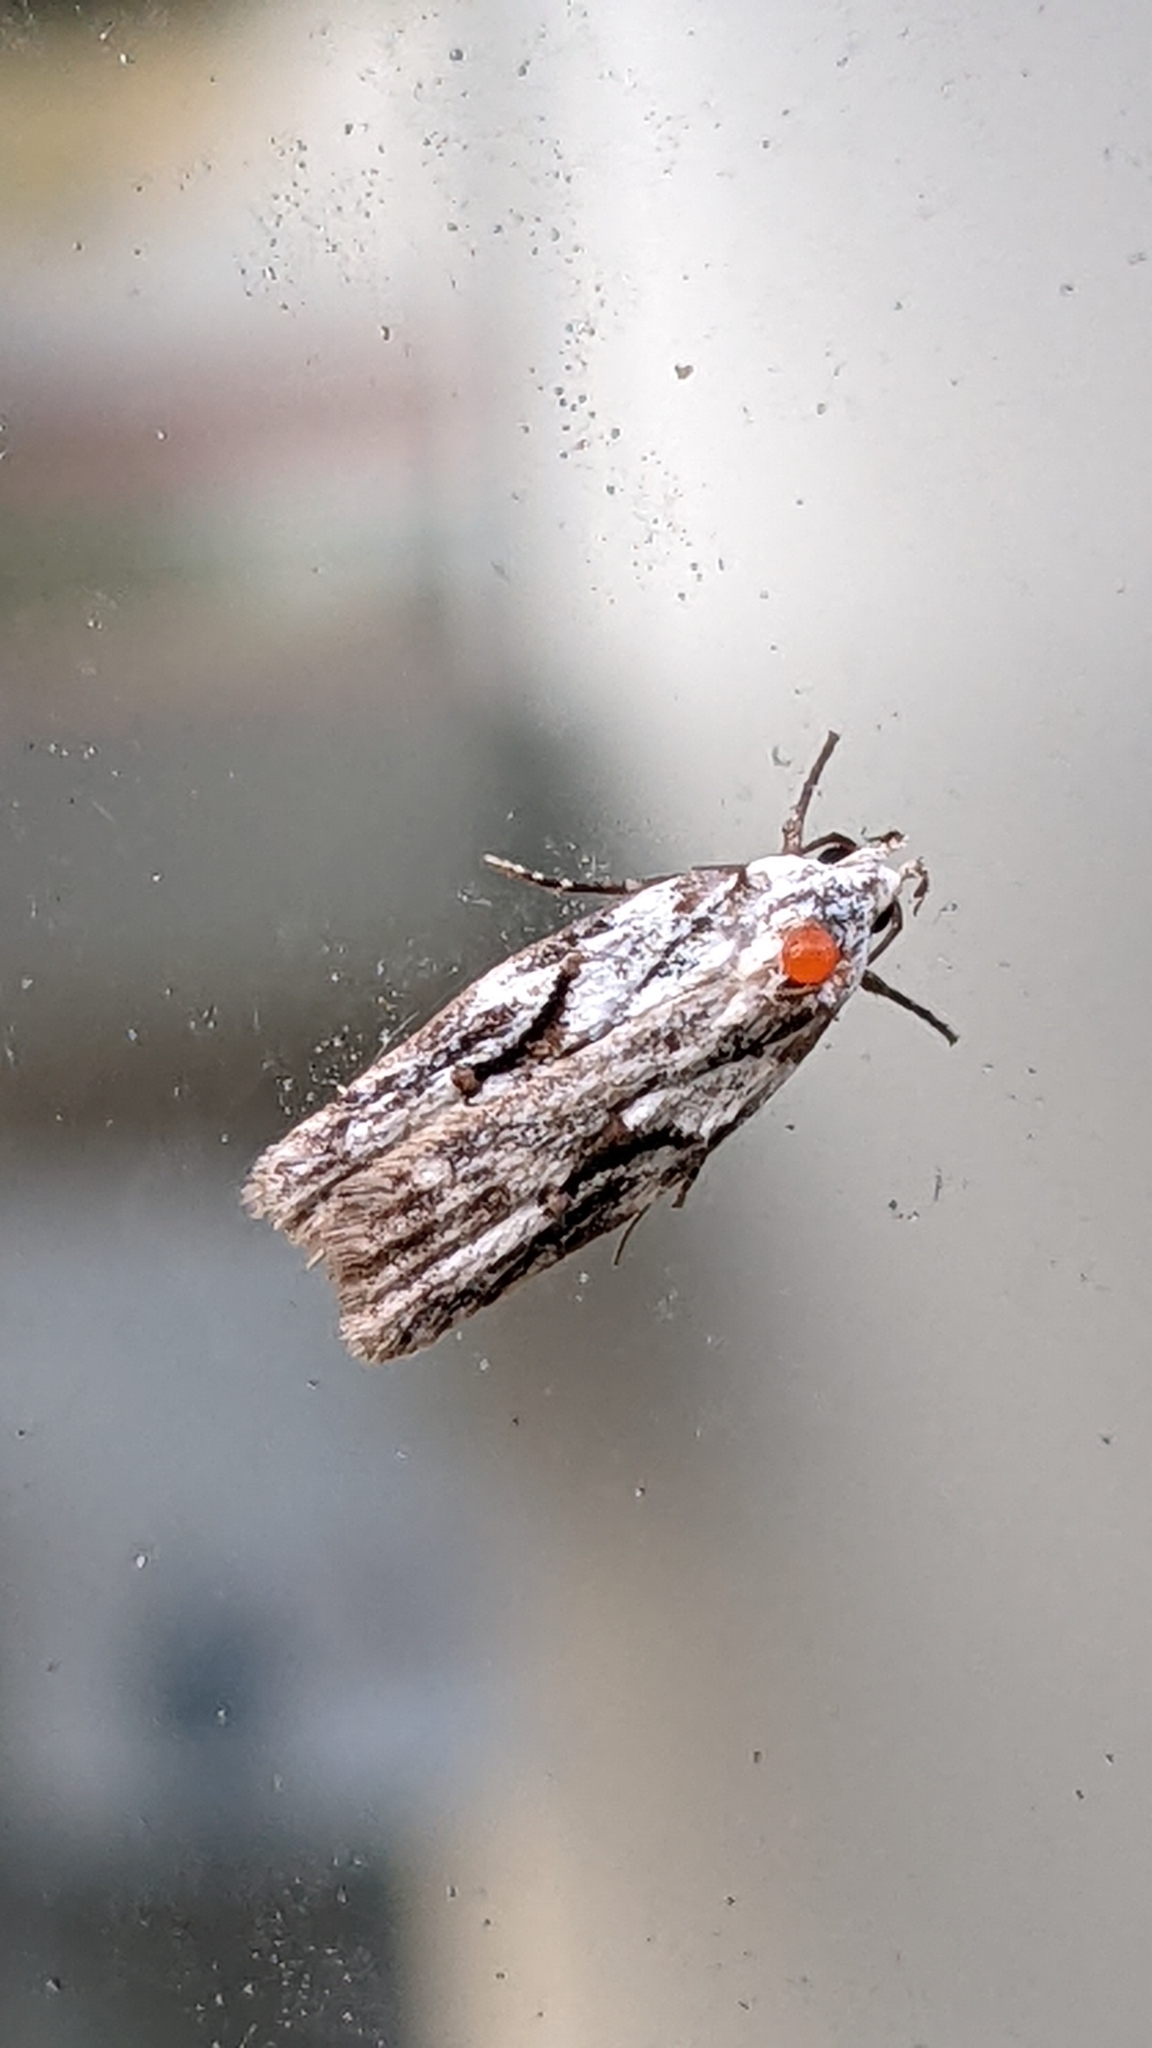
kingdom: Animalia
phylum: Arthropoda
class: Insecta
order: Lepidoptera
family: Oecophoridae
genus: Izatha
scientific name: Izatha mesoschista
